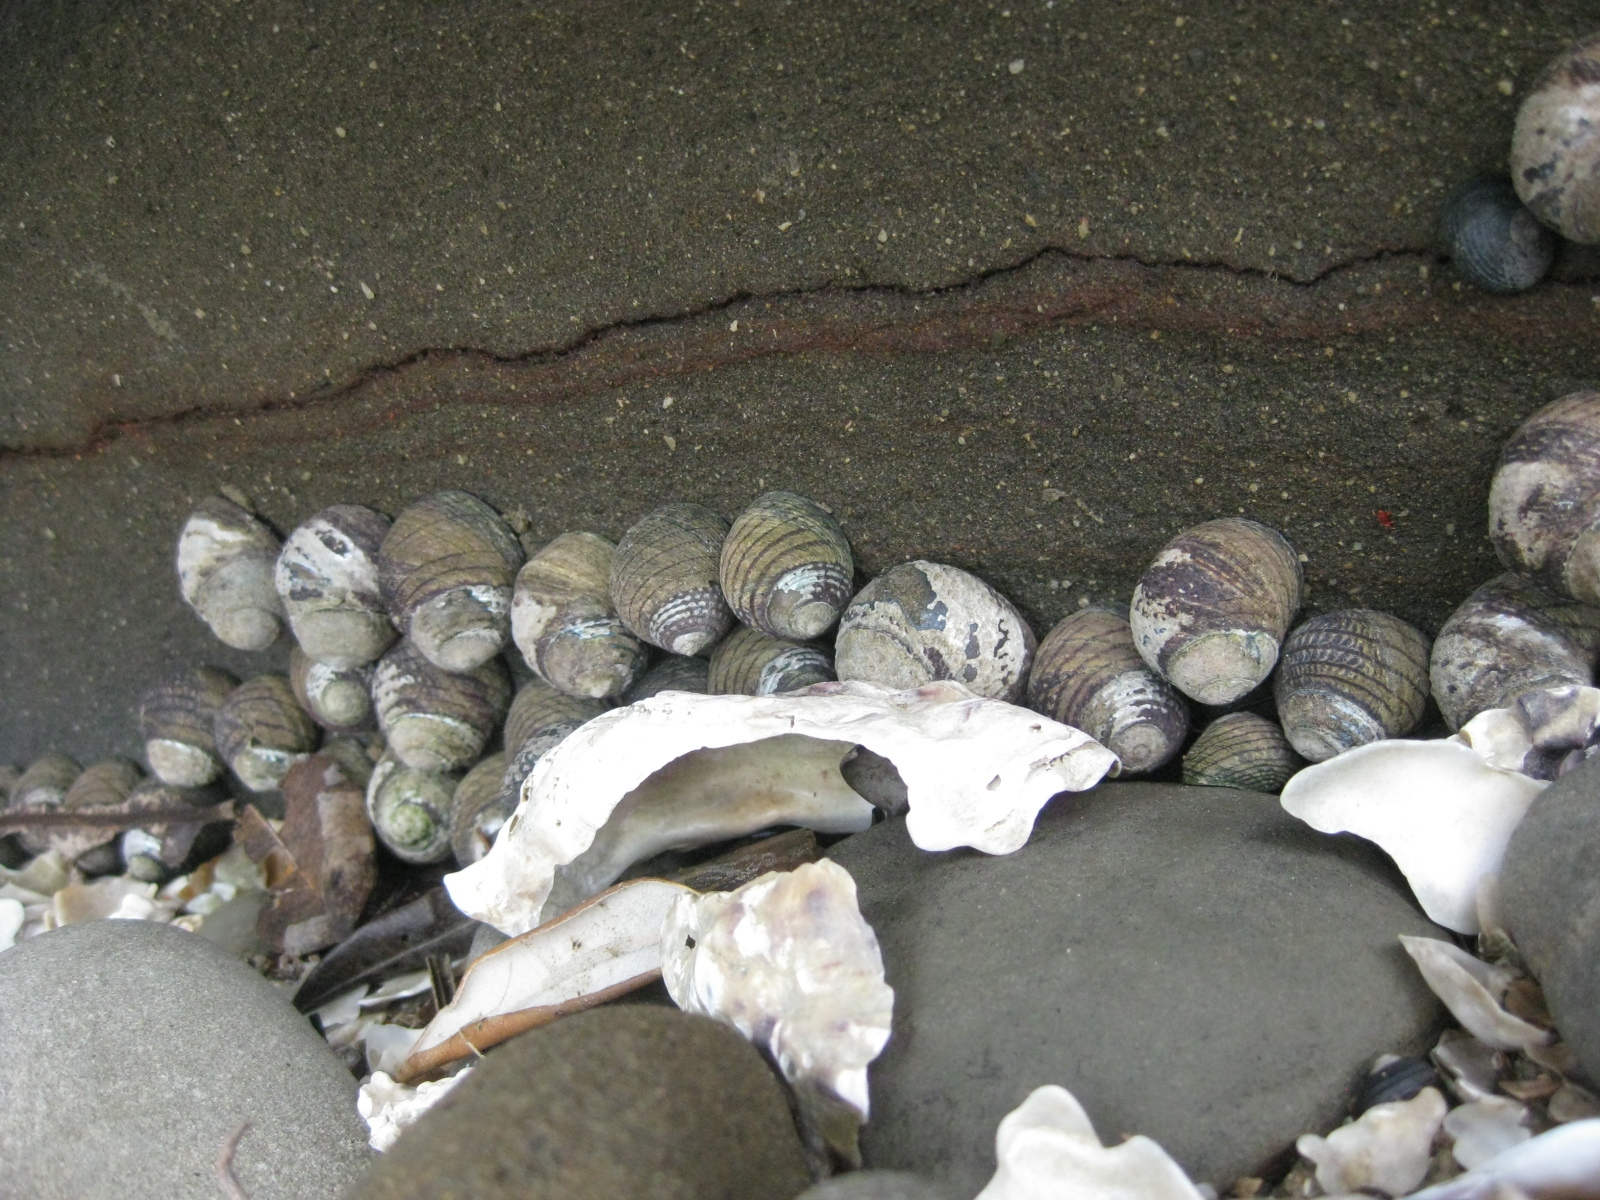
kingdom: Animalia
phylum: Mollusca
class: Gastropoda
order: Trochida
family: Trochidae
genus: Diloma
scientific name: Diloma aethiops
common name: Scorched monodont
